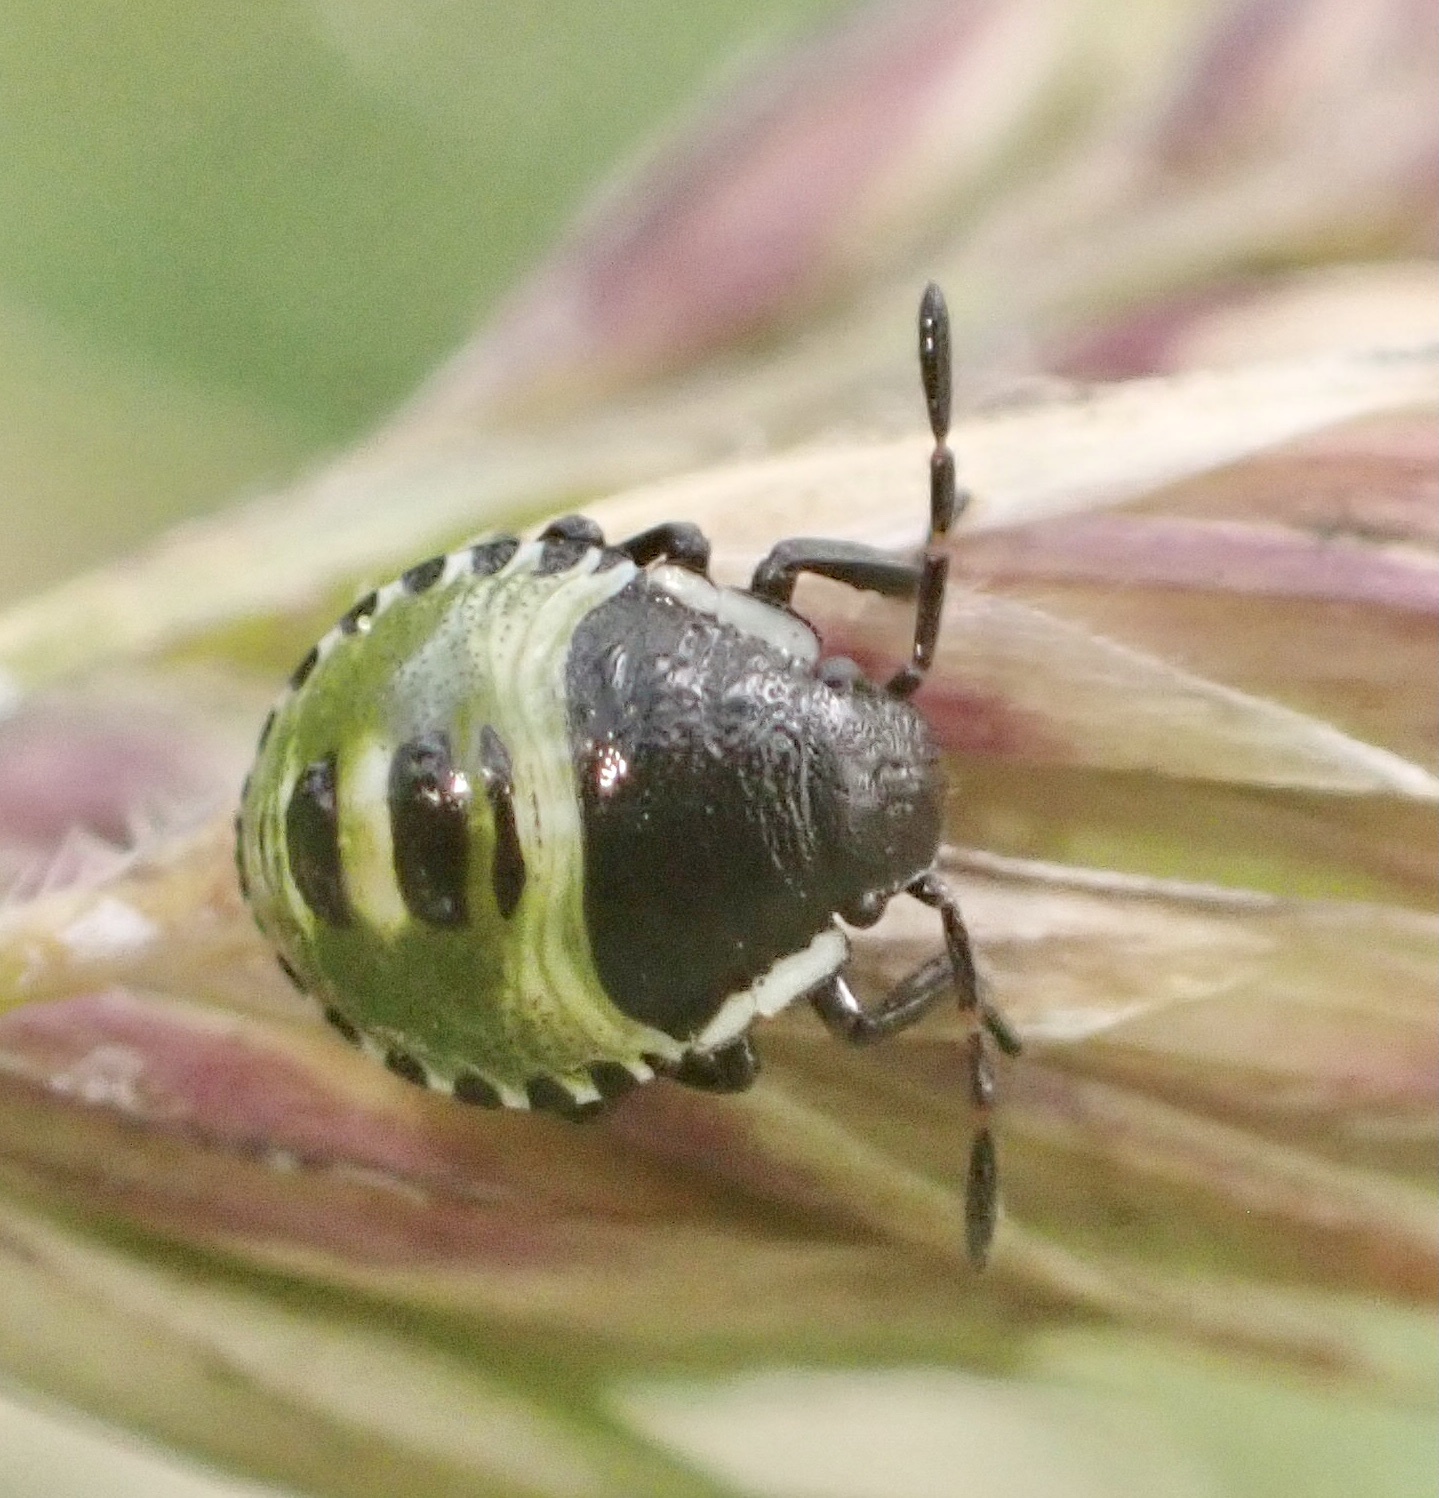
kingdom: Animalia
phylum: Arthropoda
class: Insecta
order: Hemiptera
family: Pentatomidae
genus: Palomena
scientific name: Palomena prasina
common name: Green shieldbug
